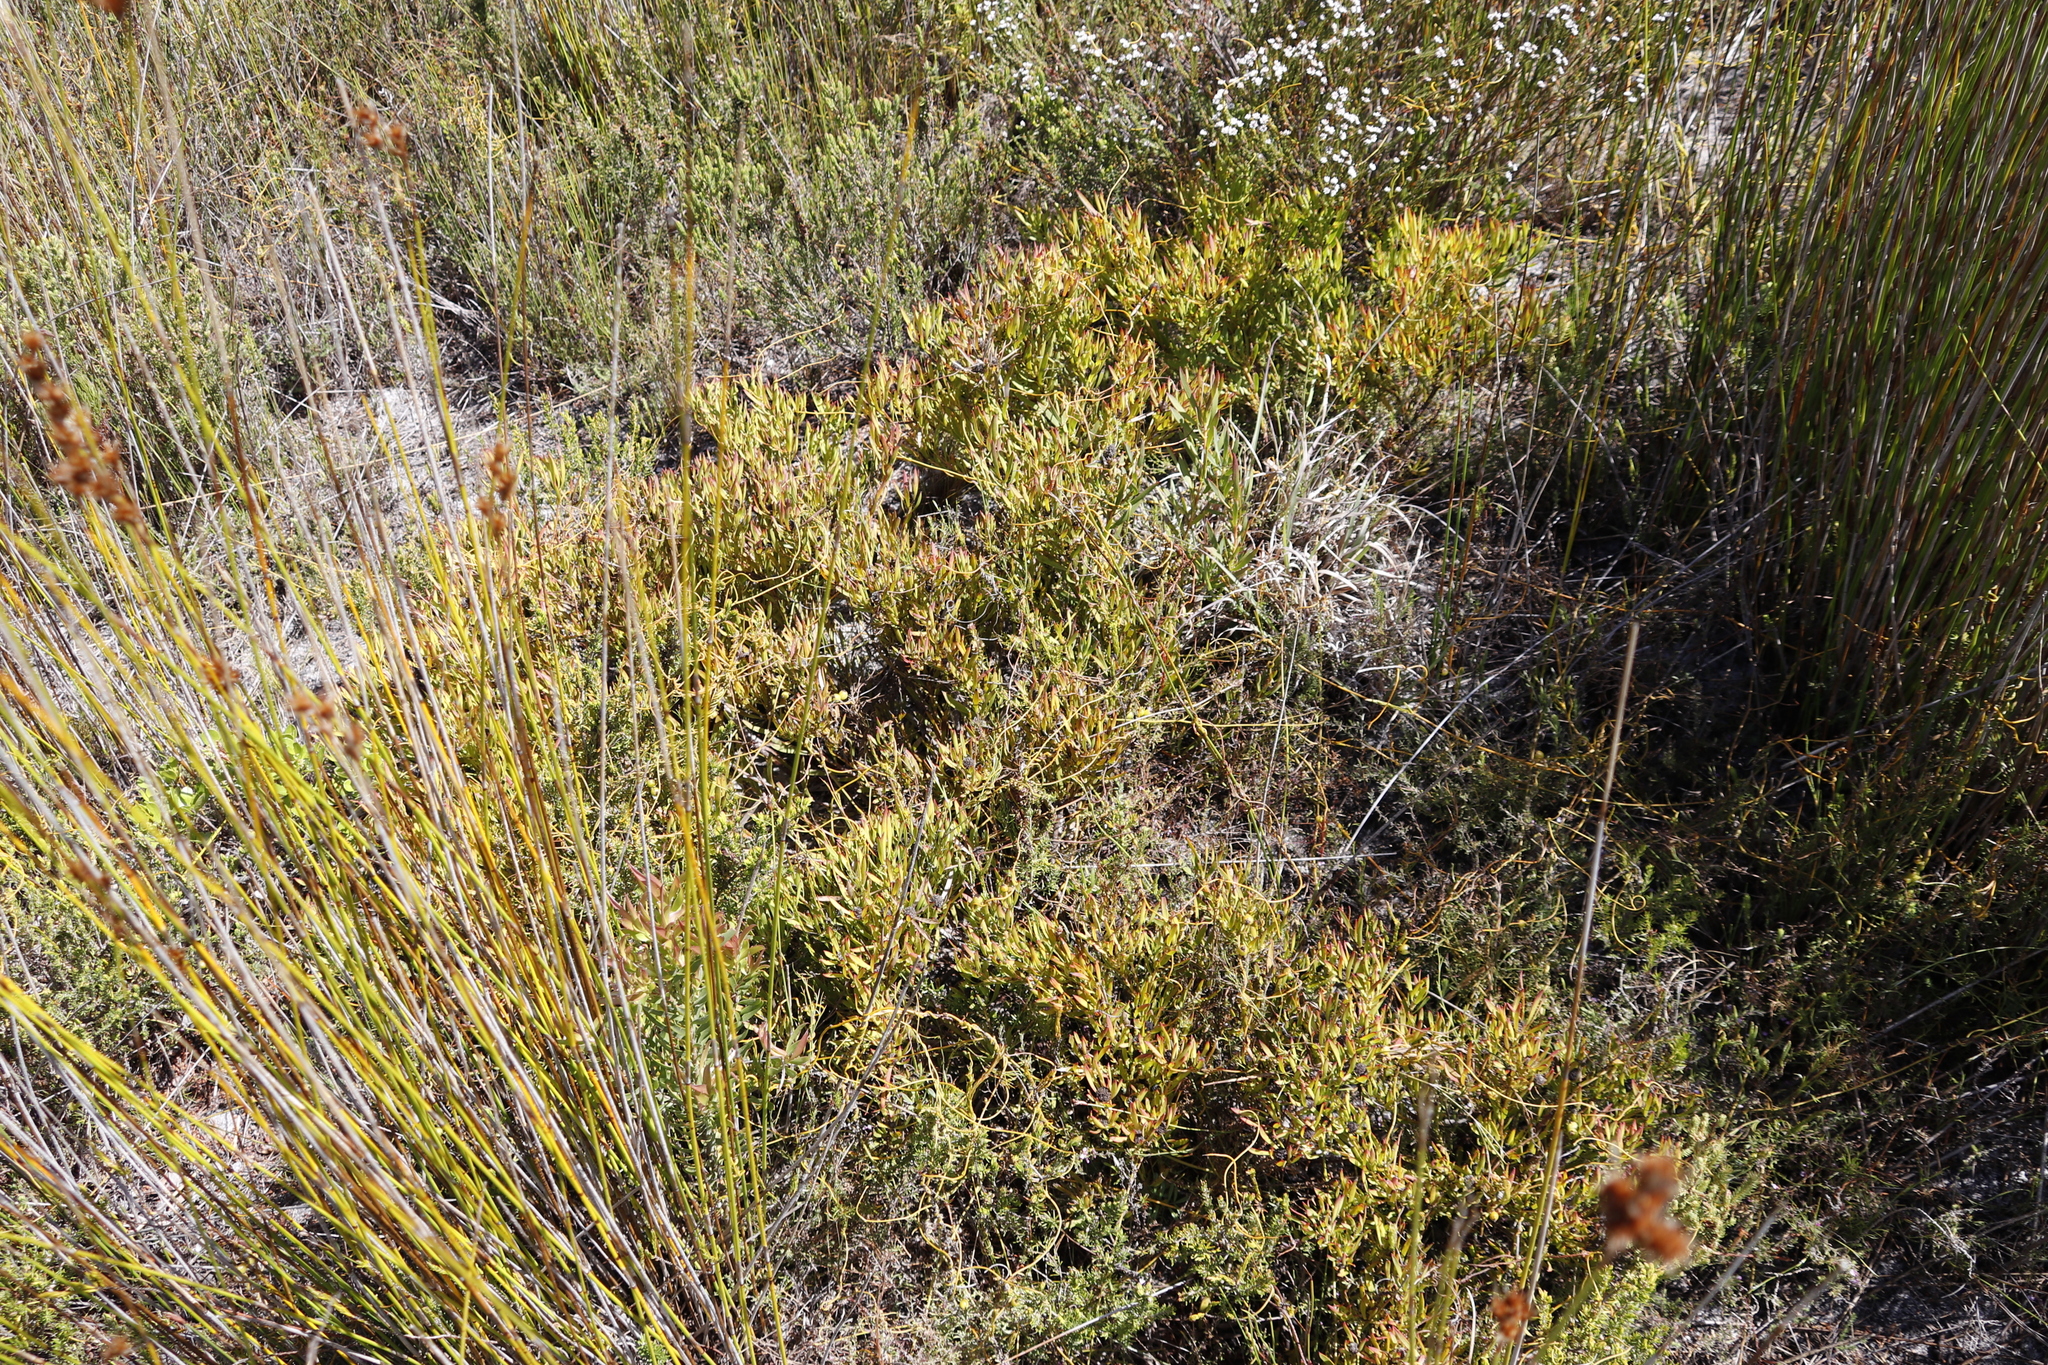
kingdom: Plantae
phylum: Tracheophyta
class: Magnoliopsida
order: Proteales
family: Proteaceae
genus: Leucadendron
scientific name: Leucadendron salignum
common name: Common sunshine conebush
